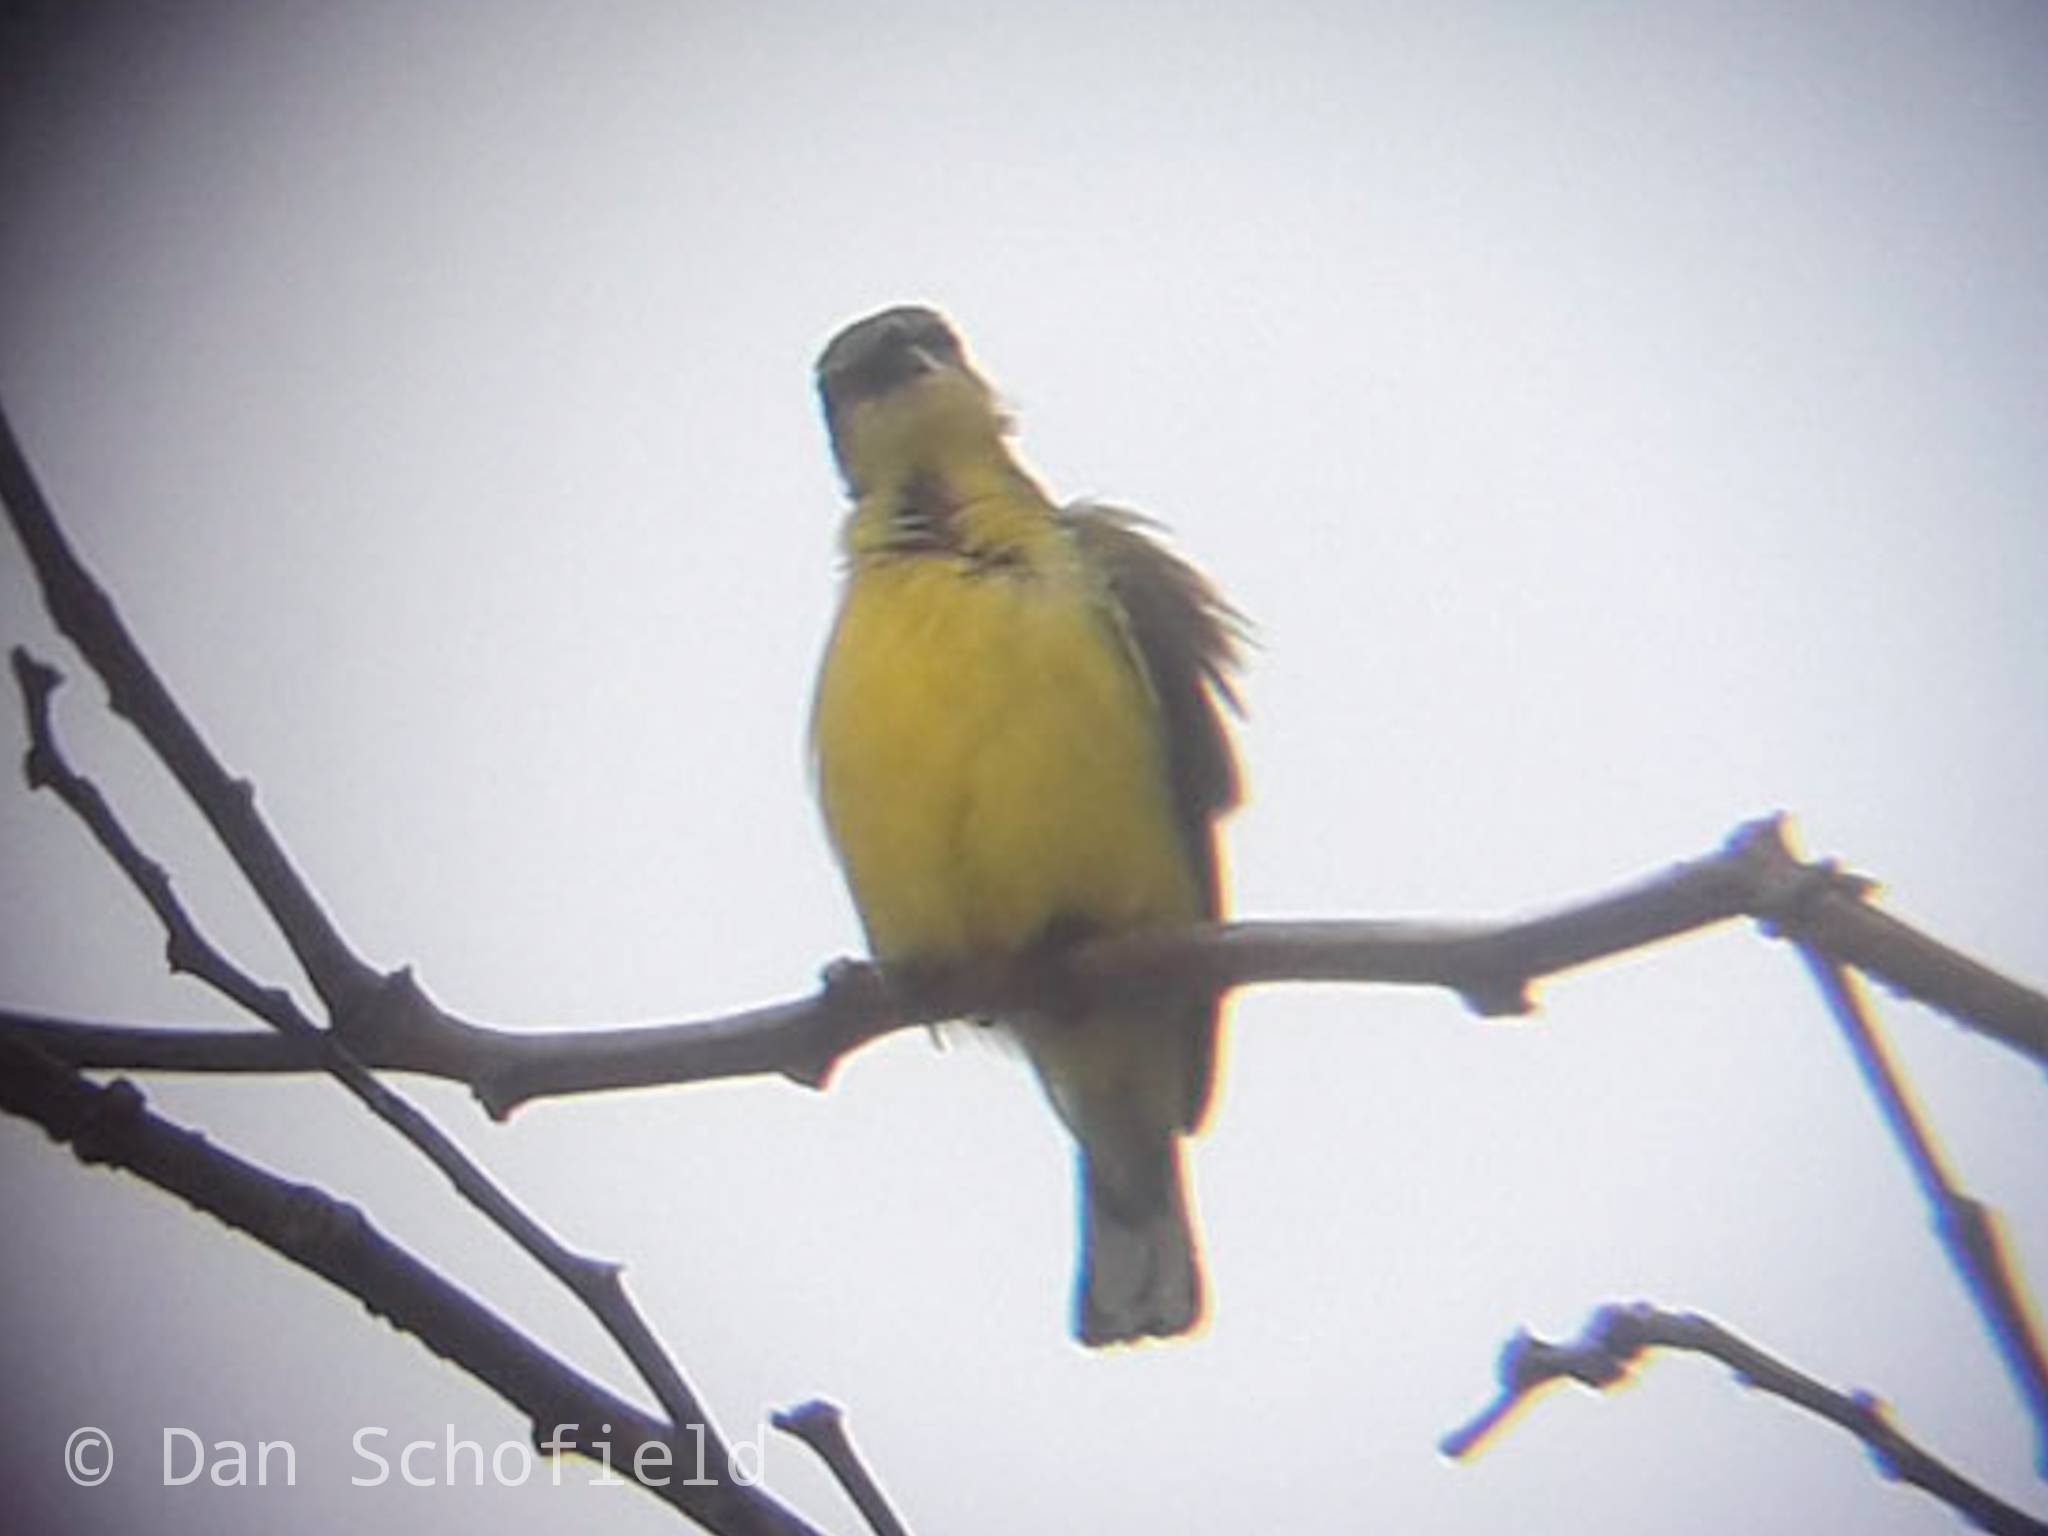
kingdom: Animalia
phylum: Chordata
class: Aves
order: Passeriformes
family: Nectariniidae
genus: Cinnyris
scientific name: Cinnyris
